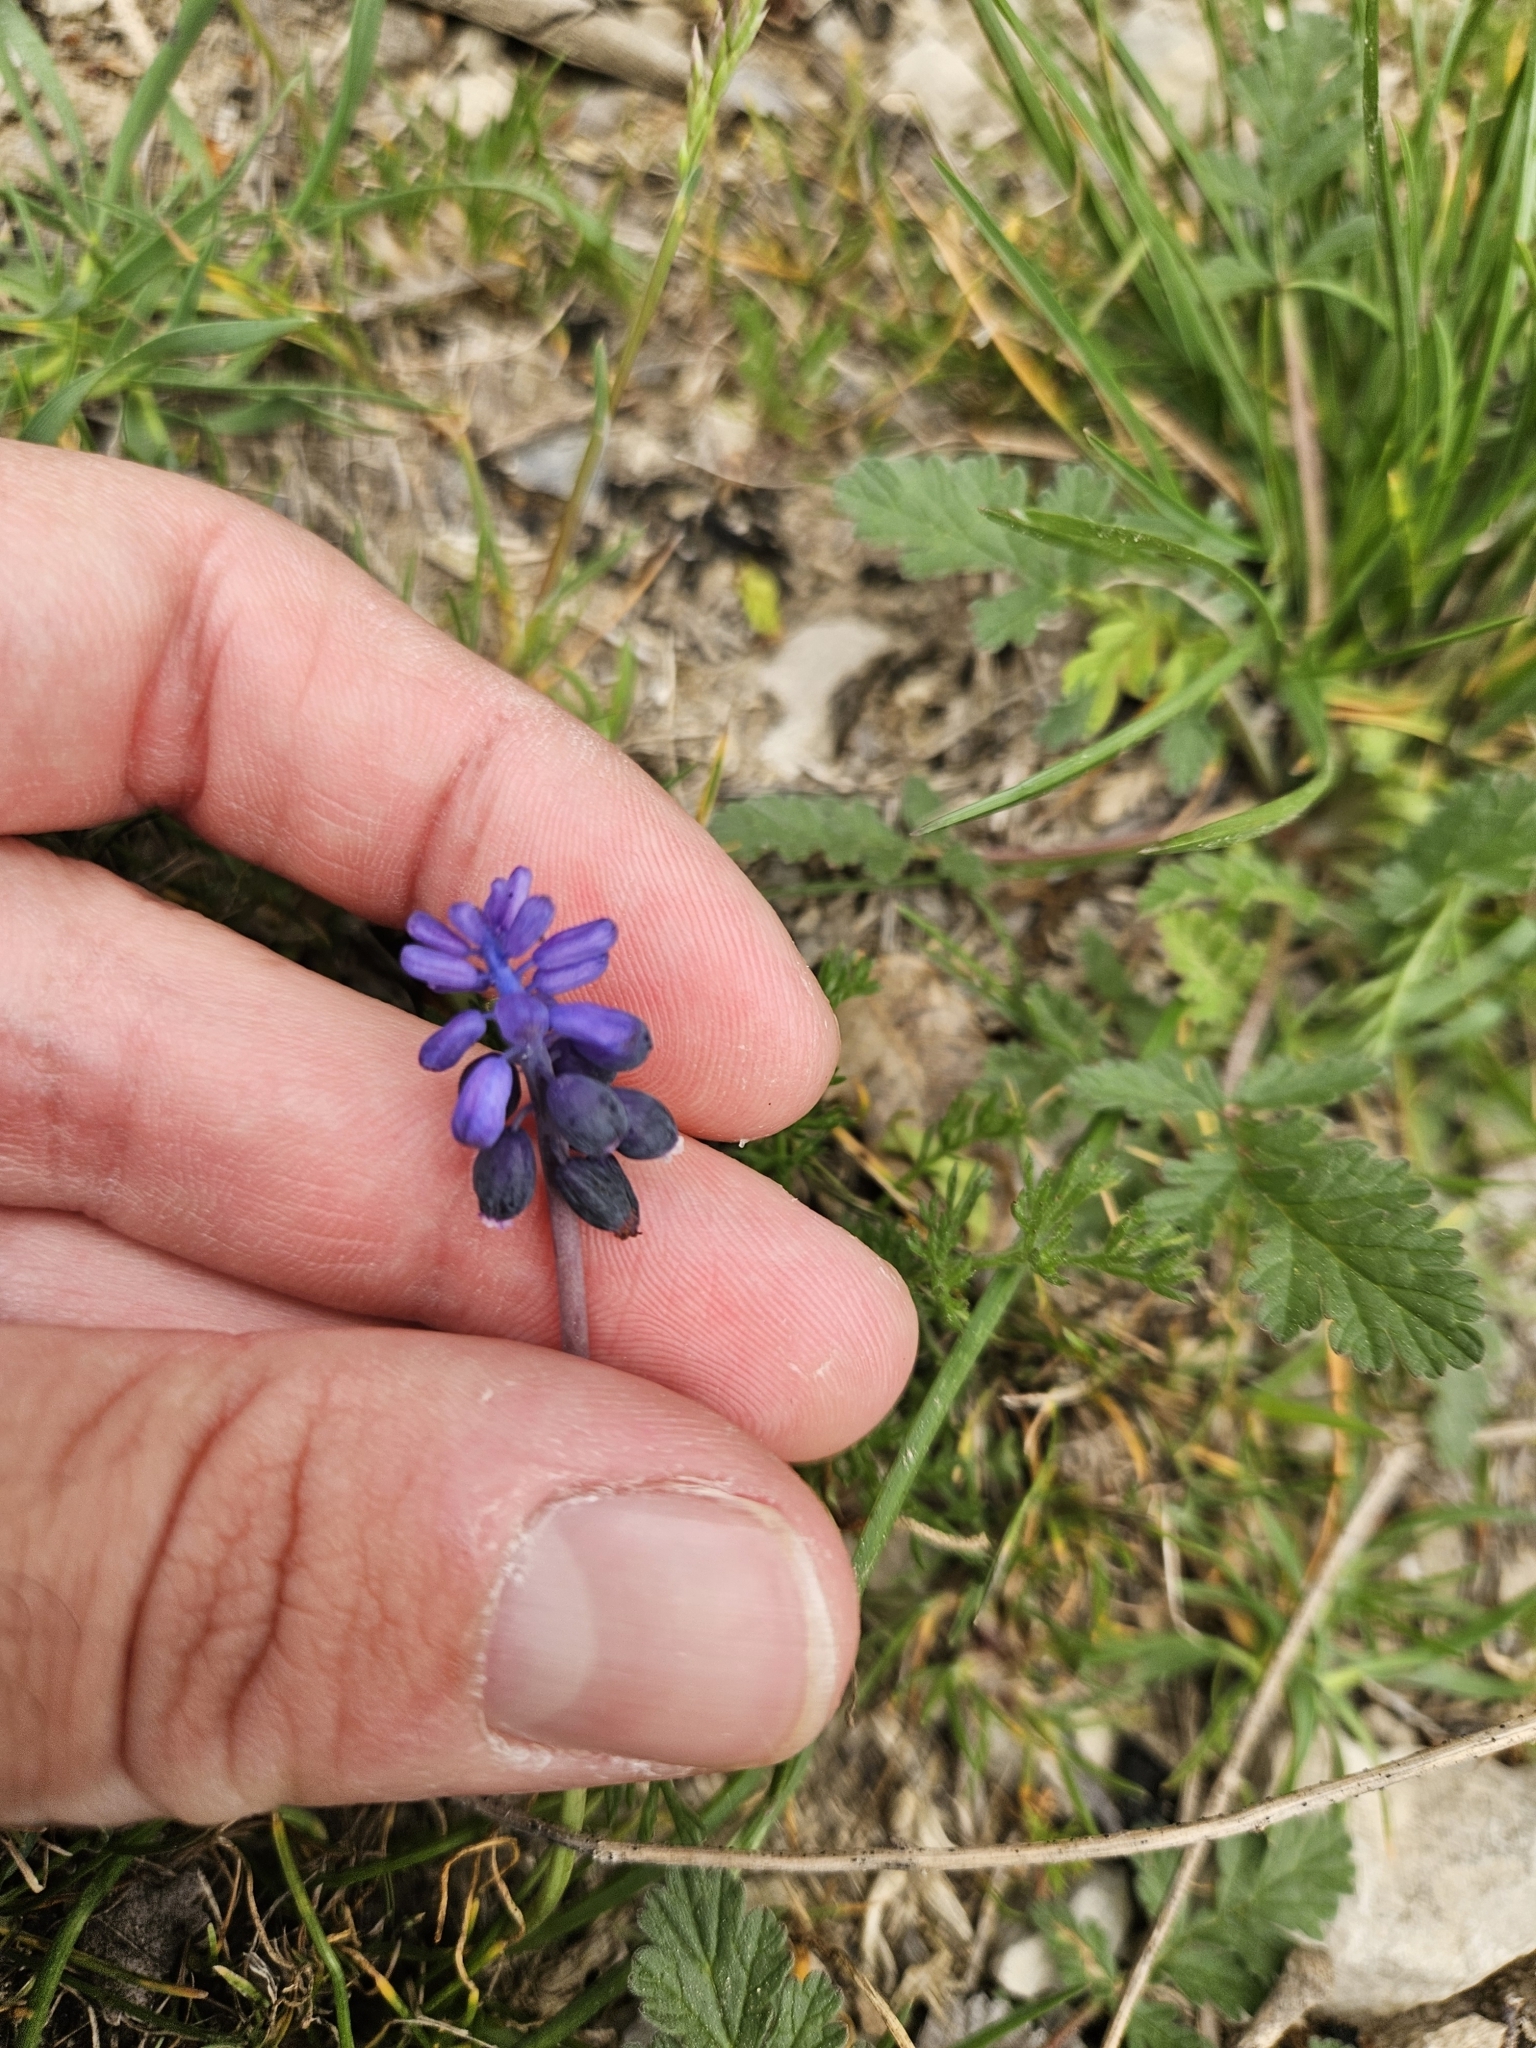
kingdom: Plantae
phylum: Tracheophyta
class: Liliopsida
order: Asparagales
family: Asparagaceae
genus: Muscari
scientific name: Muscari neglectum
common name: Grape-hyacinth
